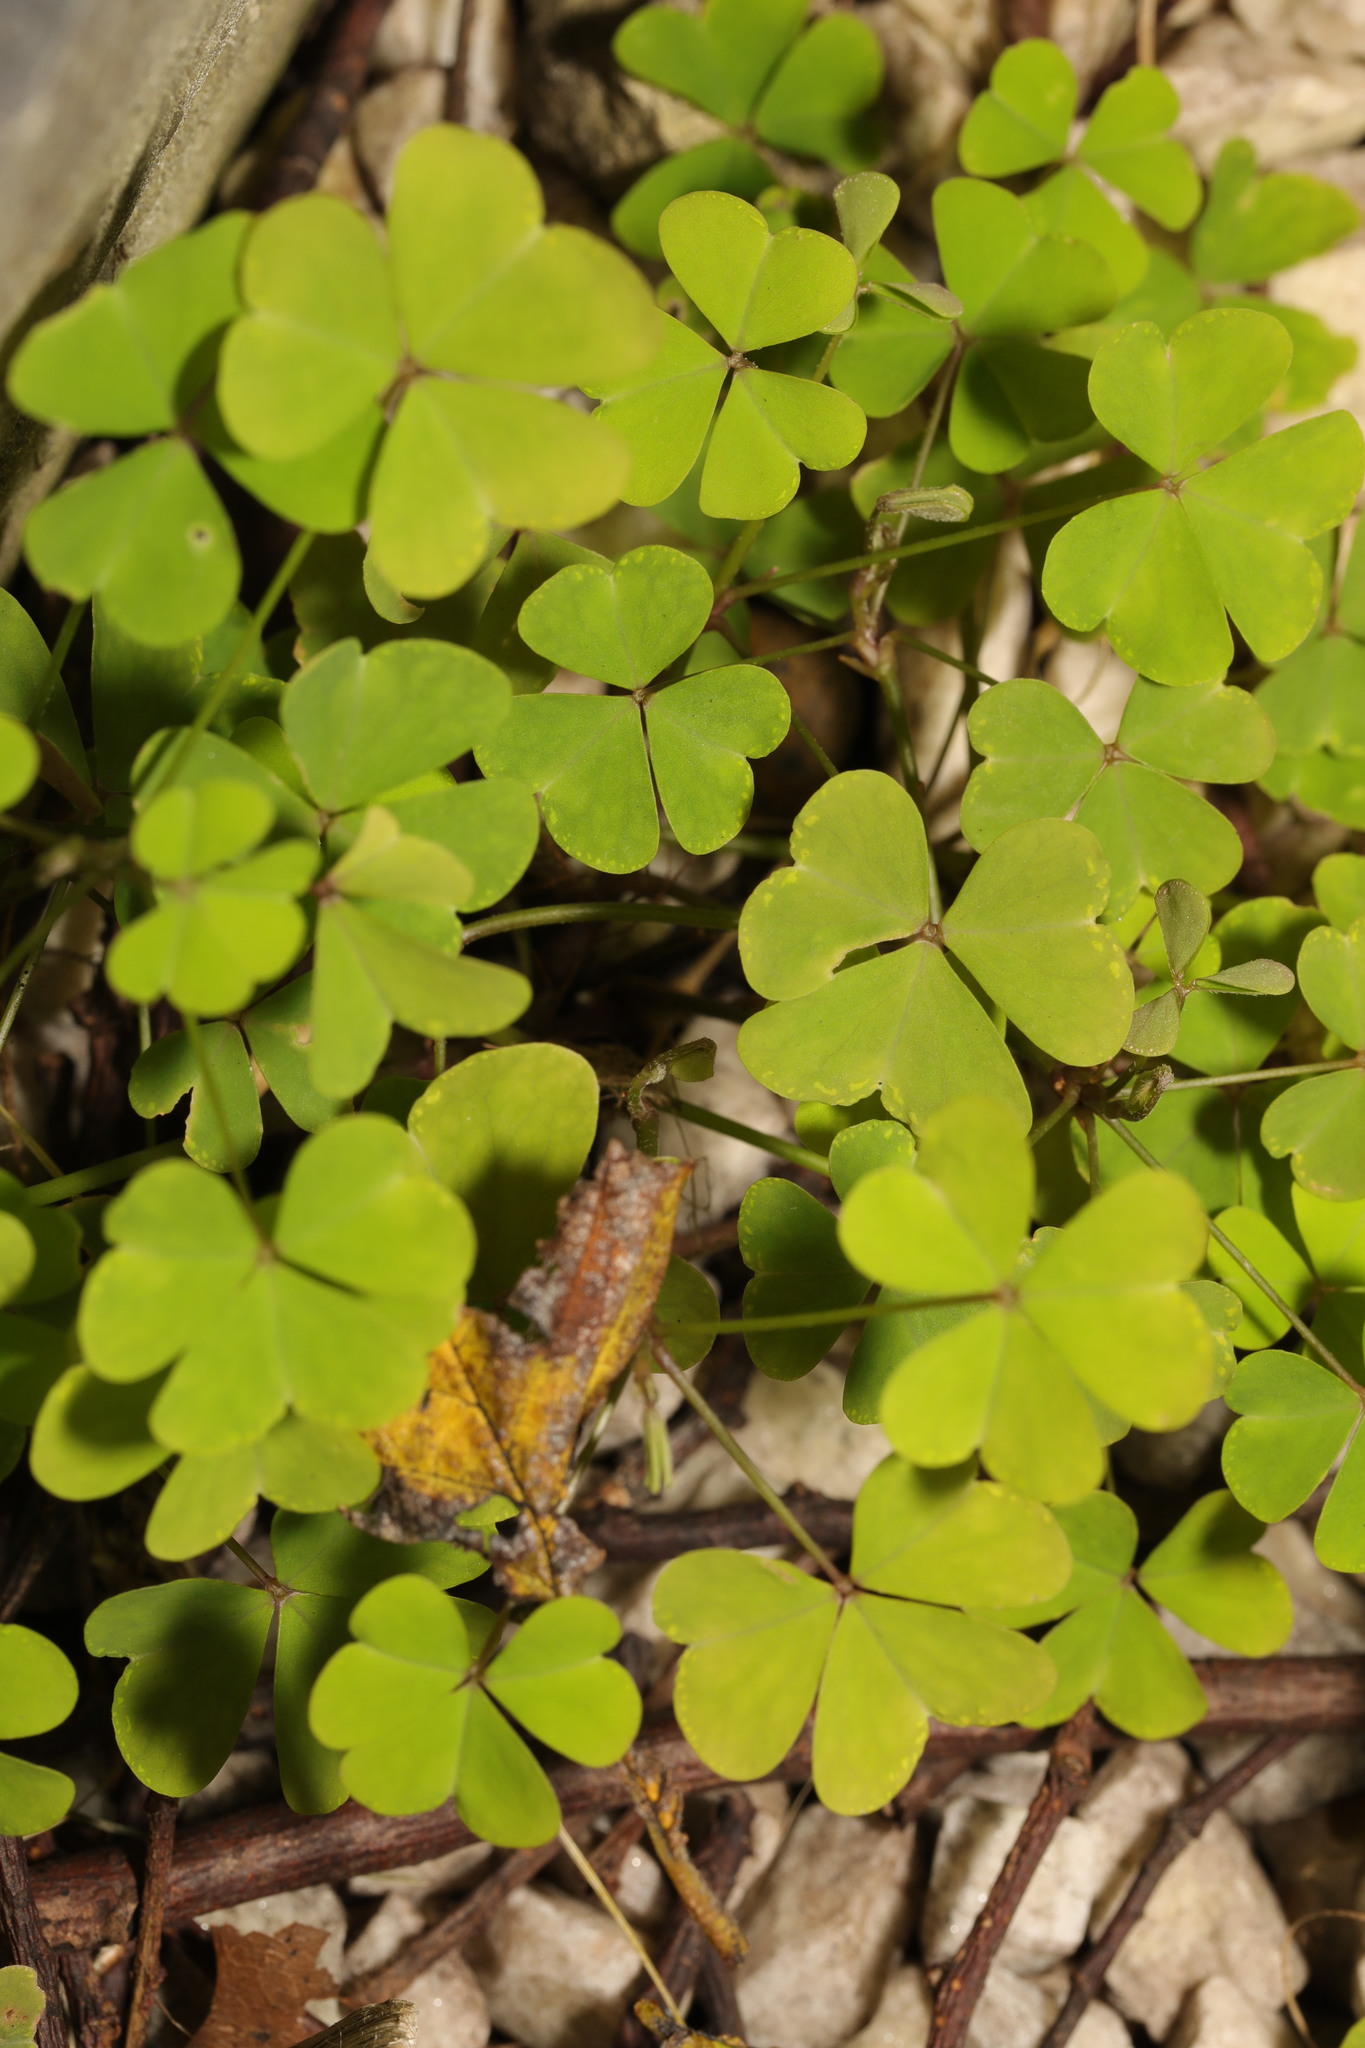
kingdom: Plantae
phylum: Tracheophyta
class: Magnoliopsida
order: Oxalidales
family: Oxalidaceae
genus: Oxalis
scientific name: Oxalis incarnata
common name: Pale pink-sorrel
